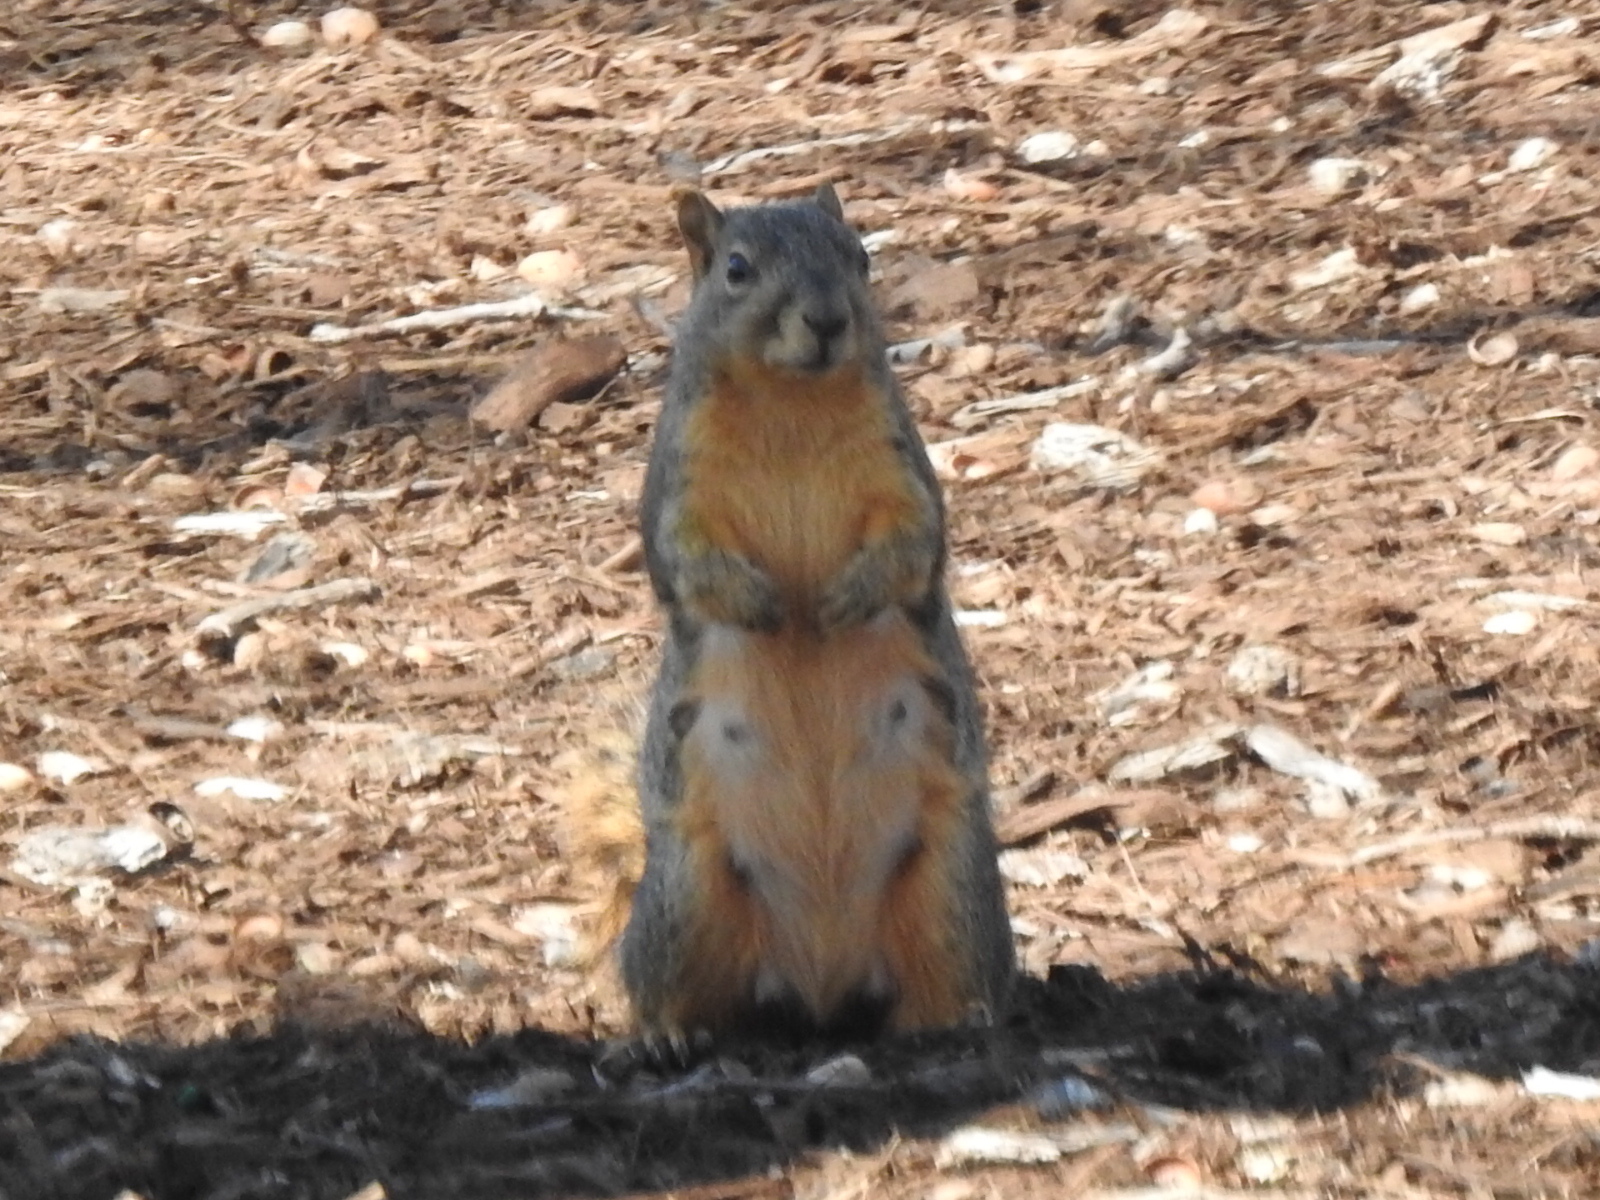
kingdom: Animalia
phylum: Chordata
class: Mammalia
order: Rodentia
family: Sciuridae
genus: Sciurus
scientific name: Sciurus niger
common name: Fox squirrel
